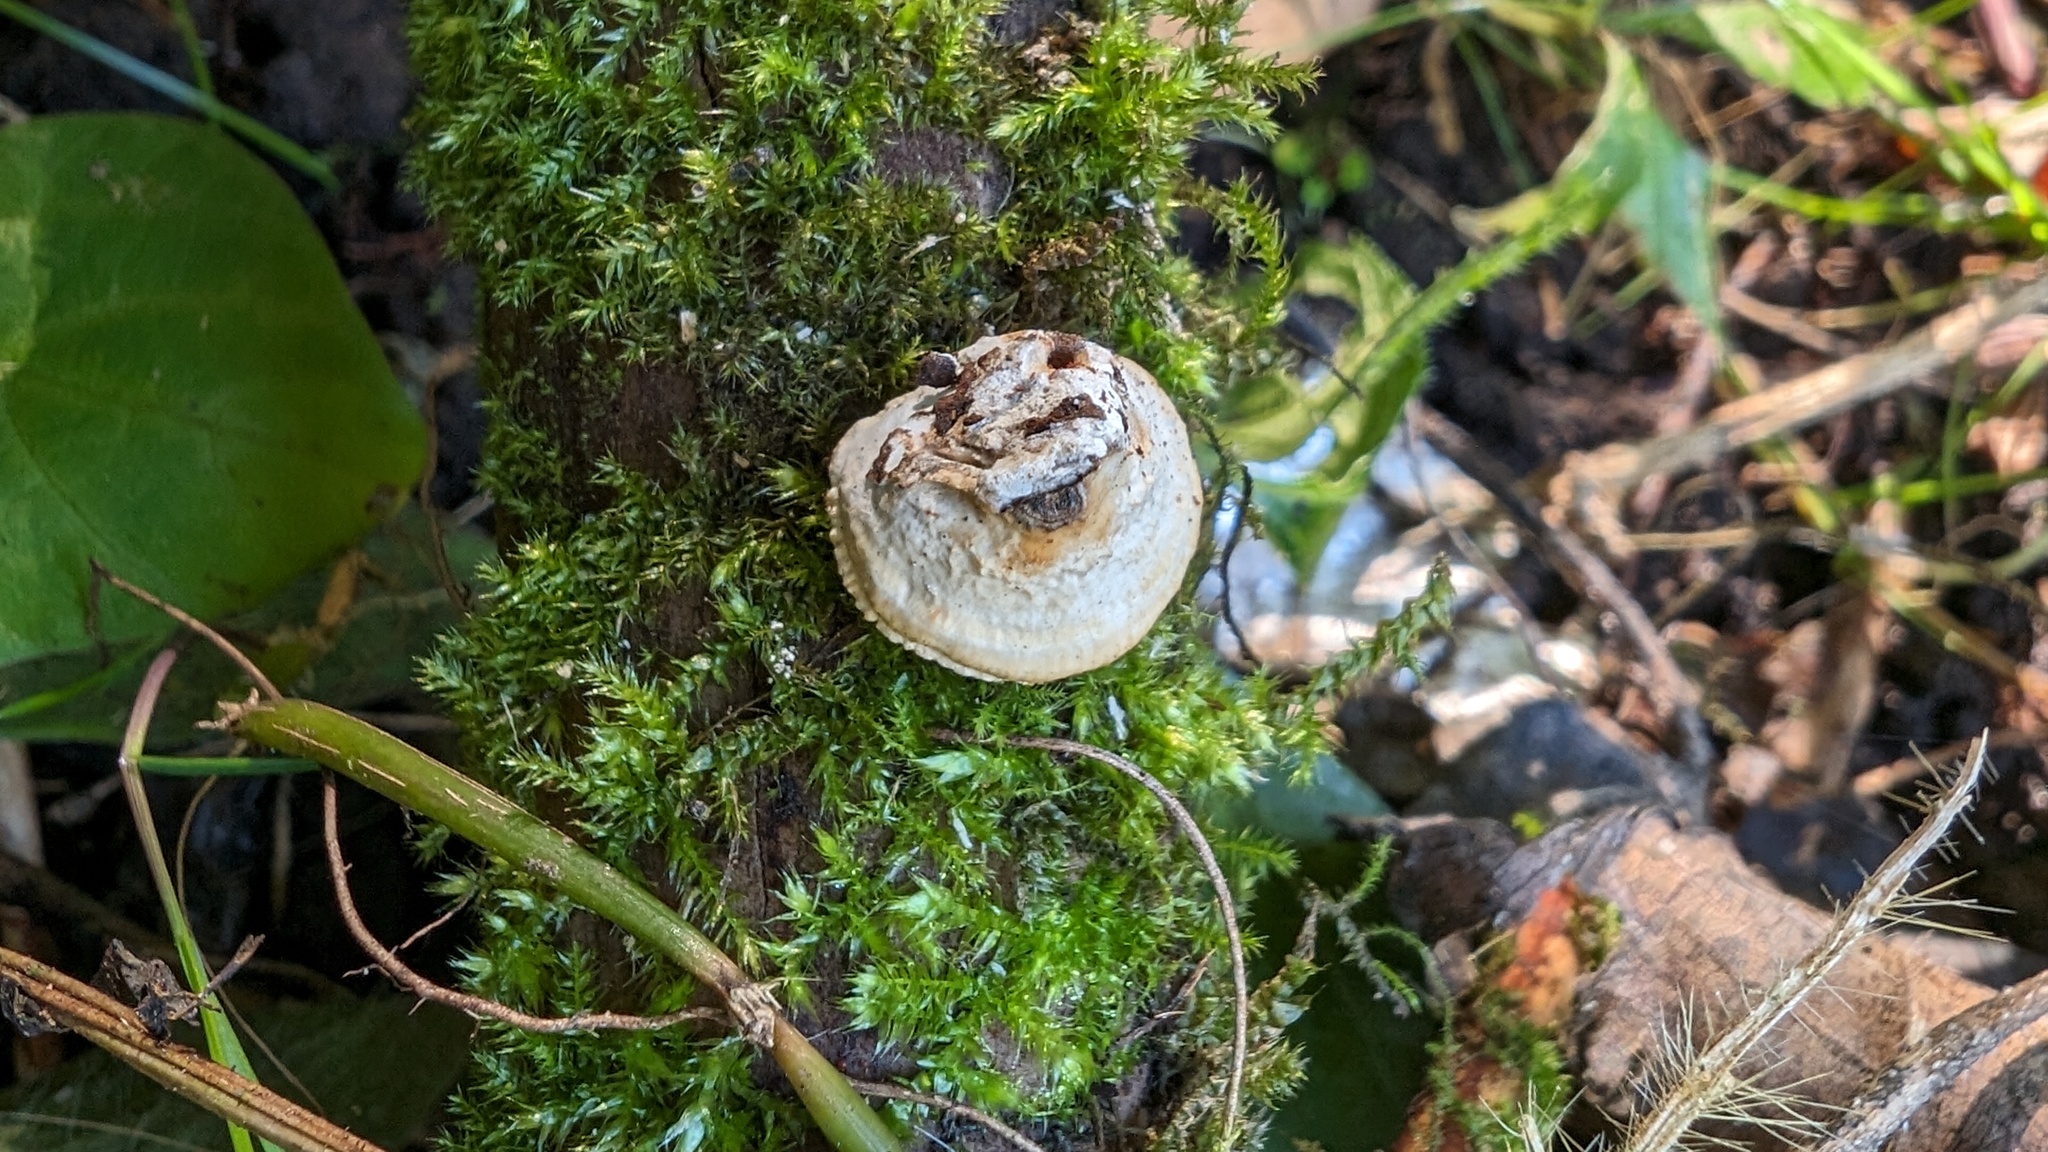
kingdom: Fungi
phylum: Basidiomycota
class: Agaricomycetes
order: Polyporales
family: Polyporaceae
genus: Truncospora
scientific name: Truncospora ochroleuca
